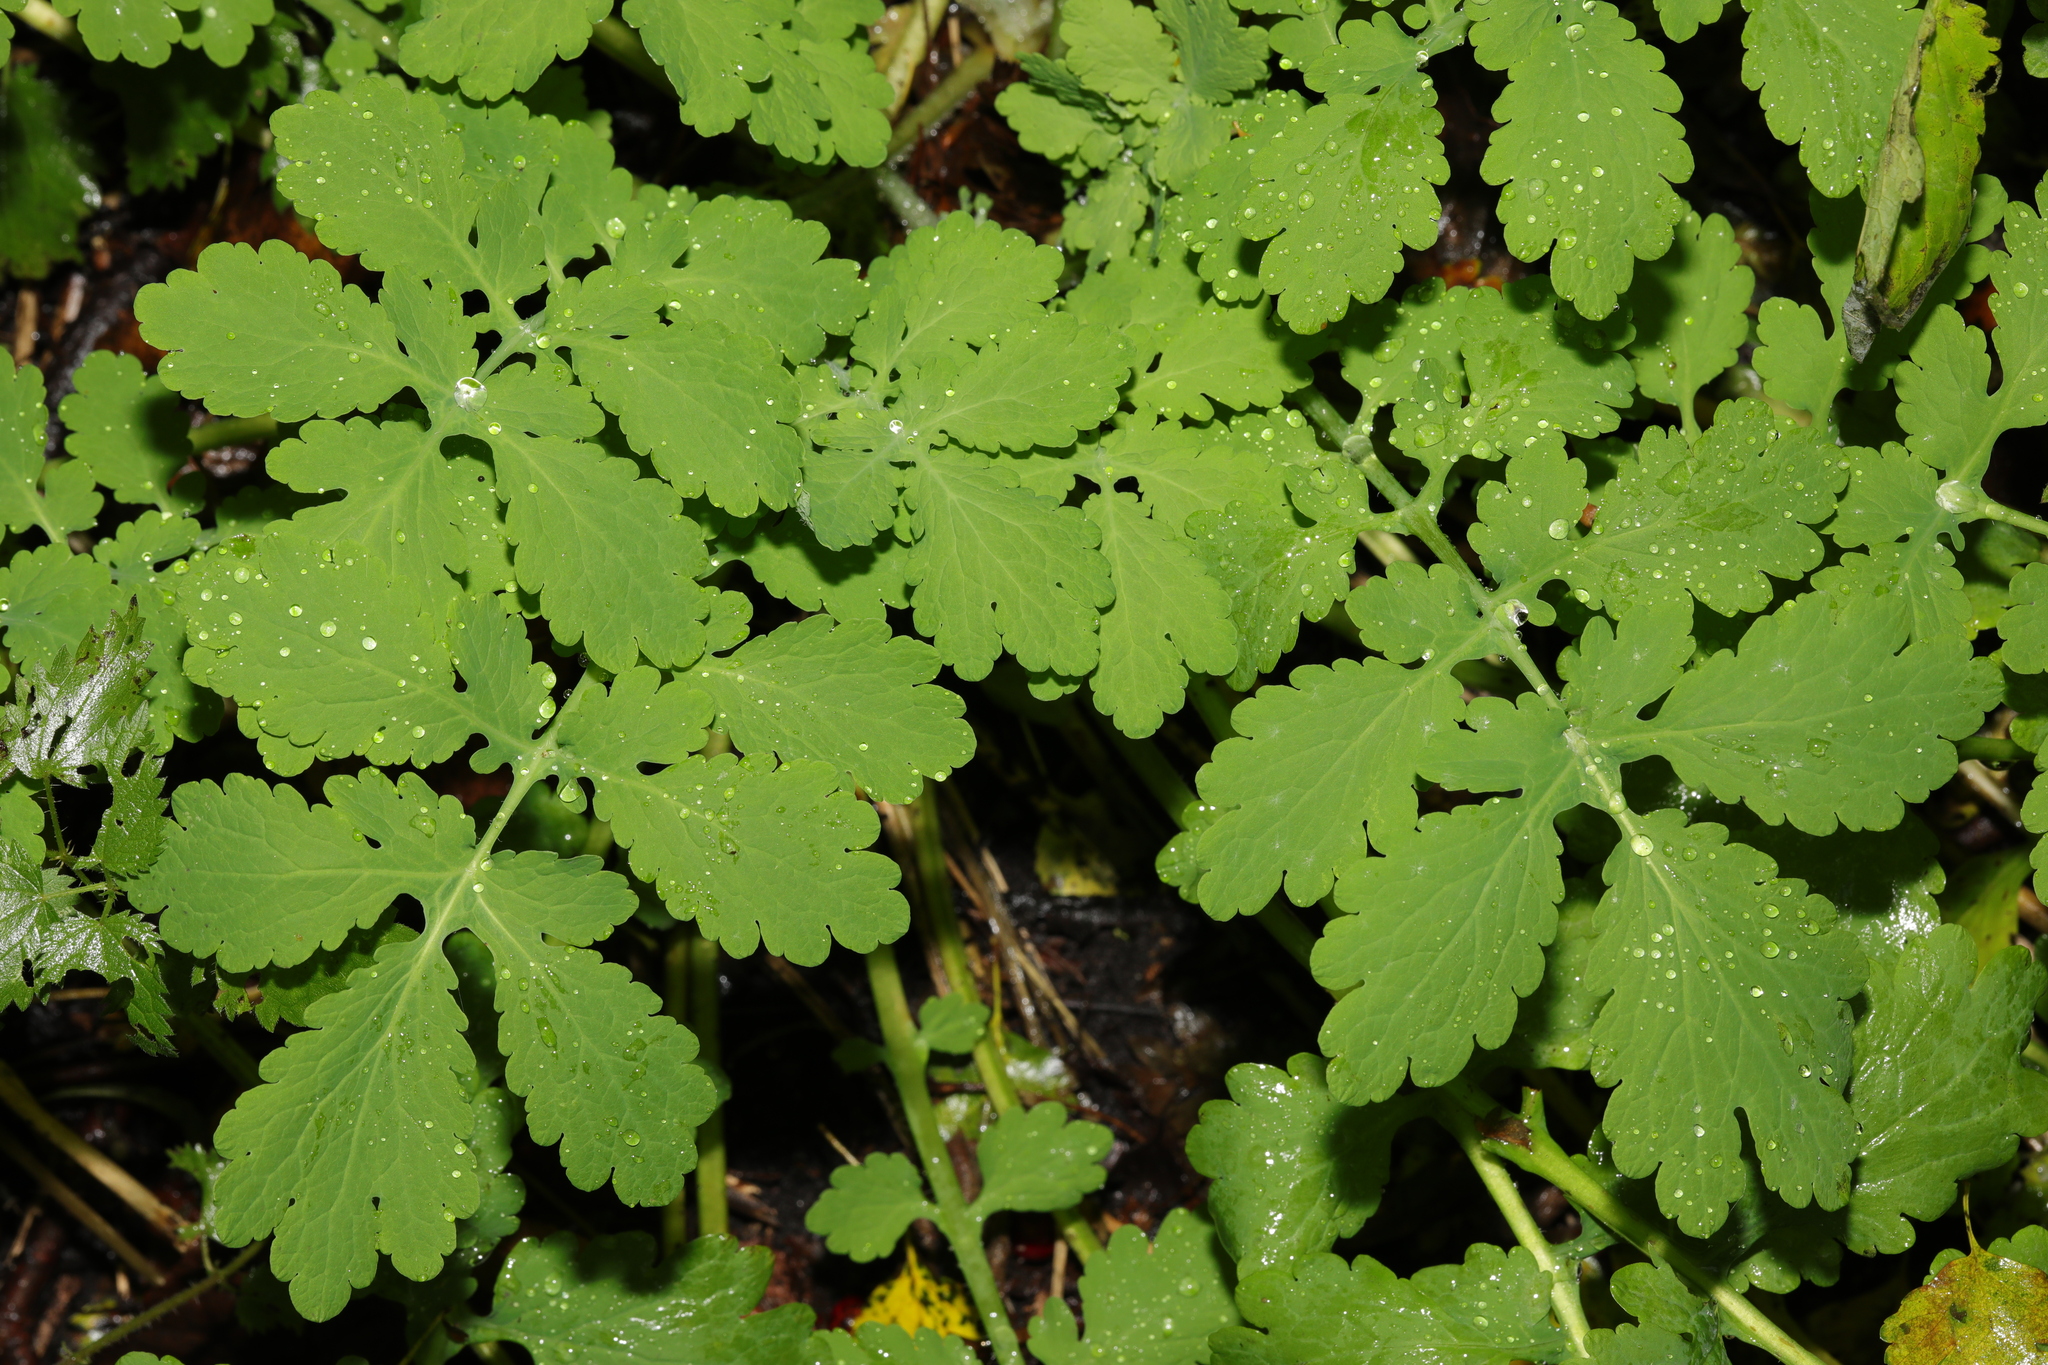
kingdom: Plantae
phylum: Tracheophyta
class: Magnoliopsida
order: Ranunculales
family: Papaveraceae
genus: Chelidonium
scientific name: Chelidonium majus
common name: Greater celandine
